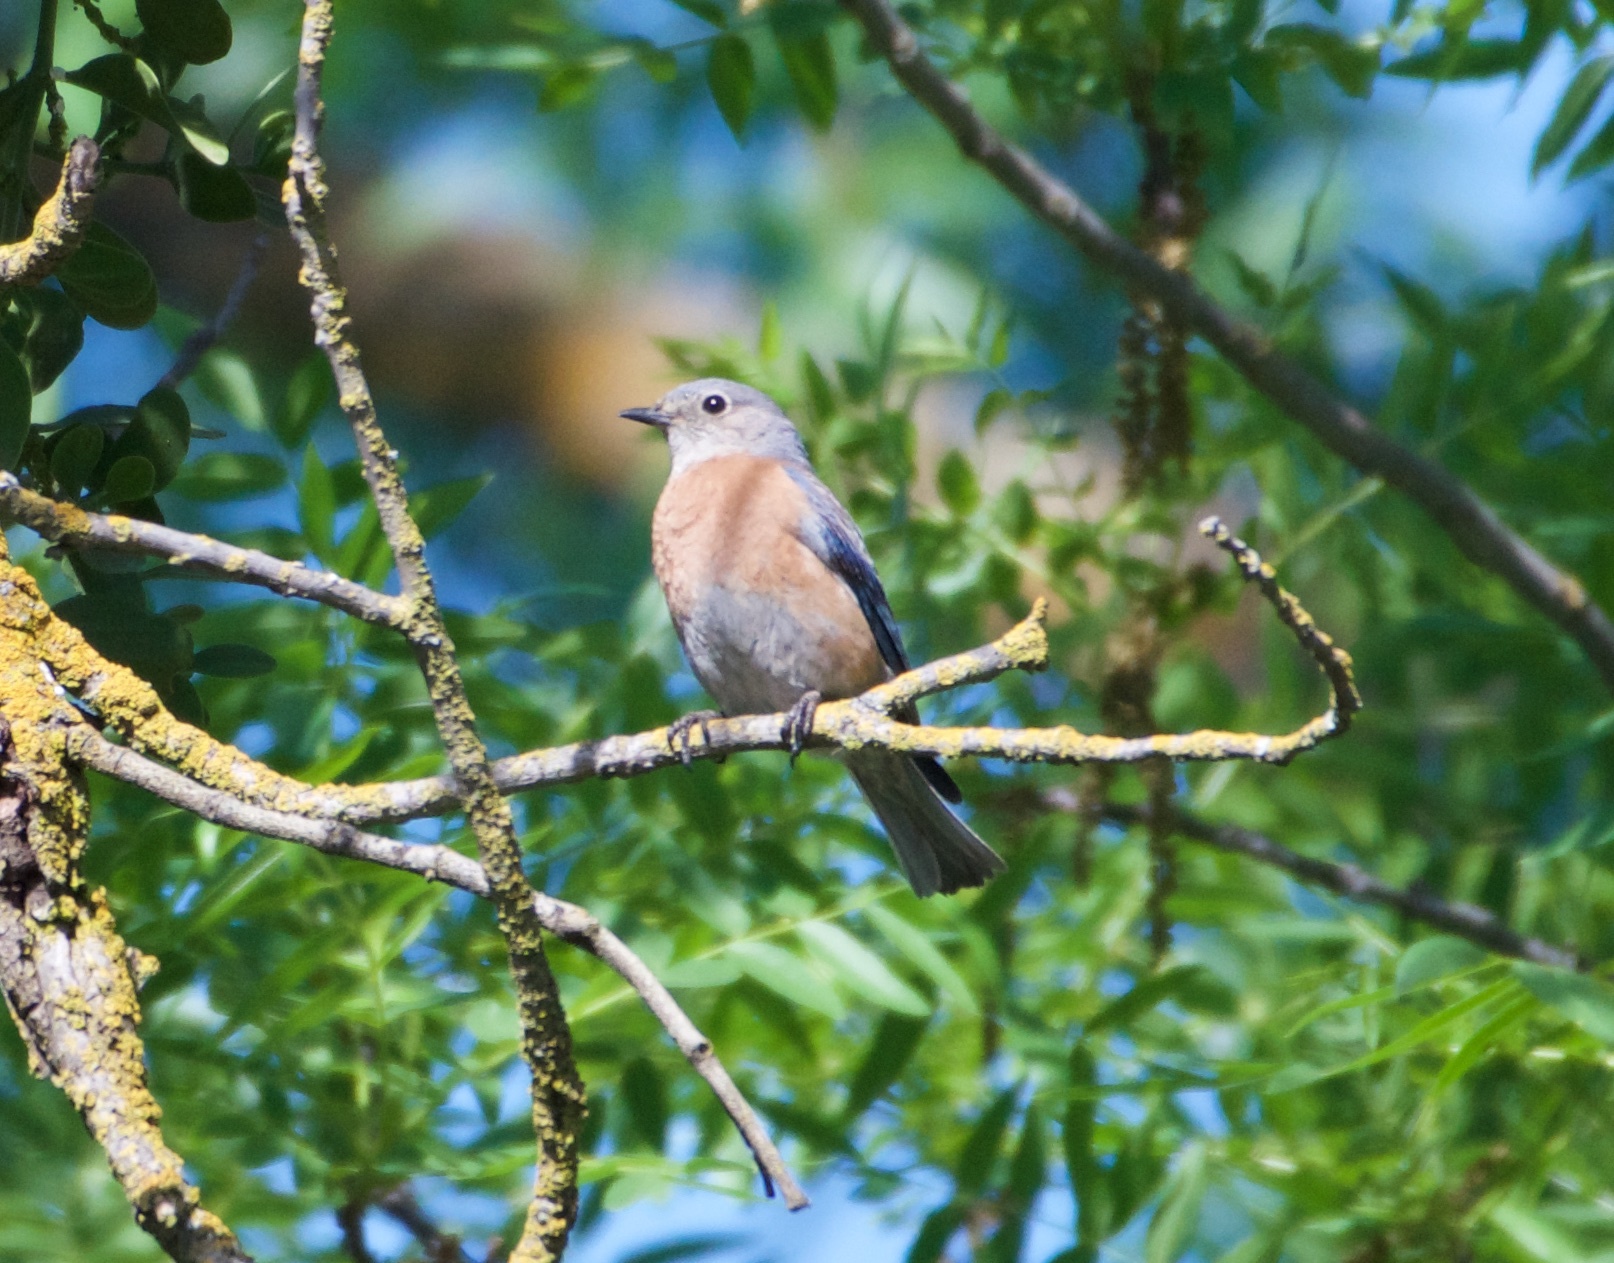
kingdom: Animalia
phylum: Chordata
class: Aves
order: Passeriformes
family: Turdidae
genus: Sialia
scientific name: Sialia mexicana
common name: Western bluebird
